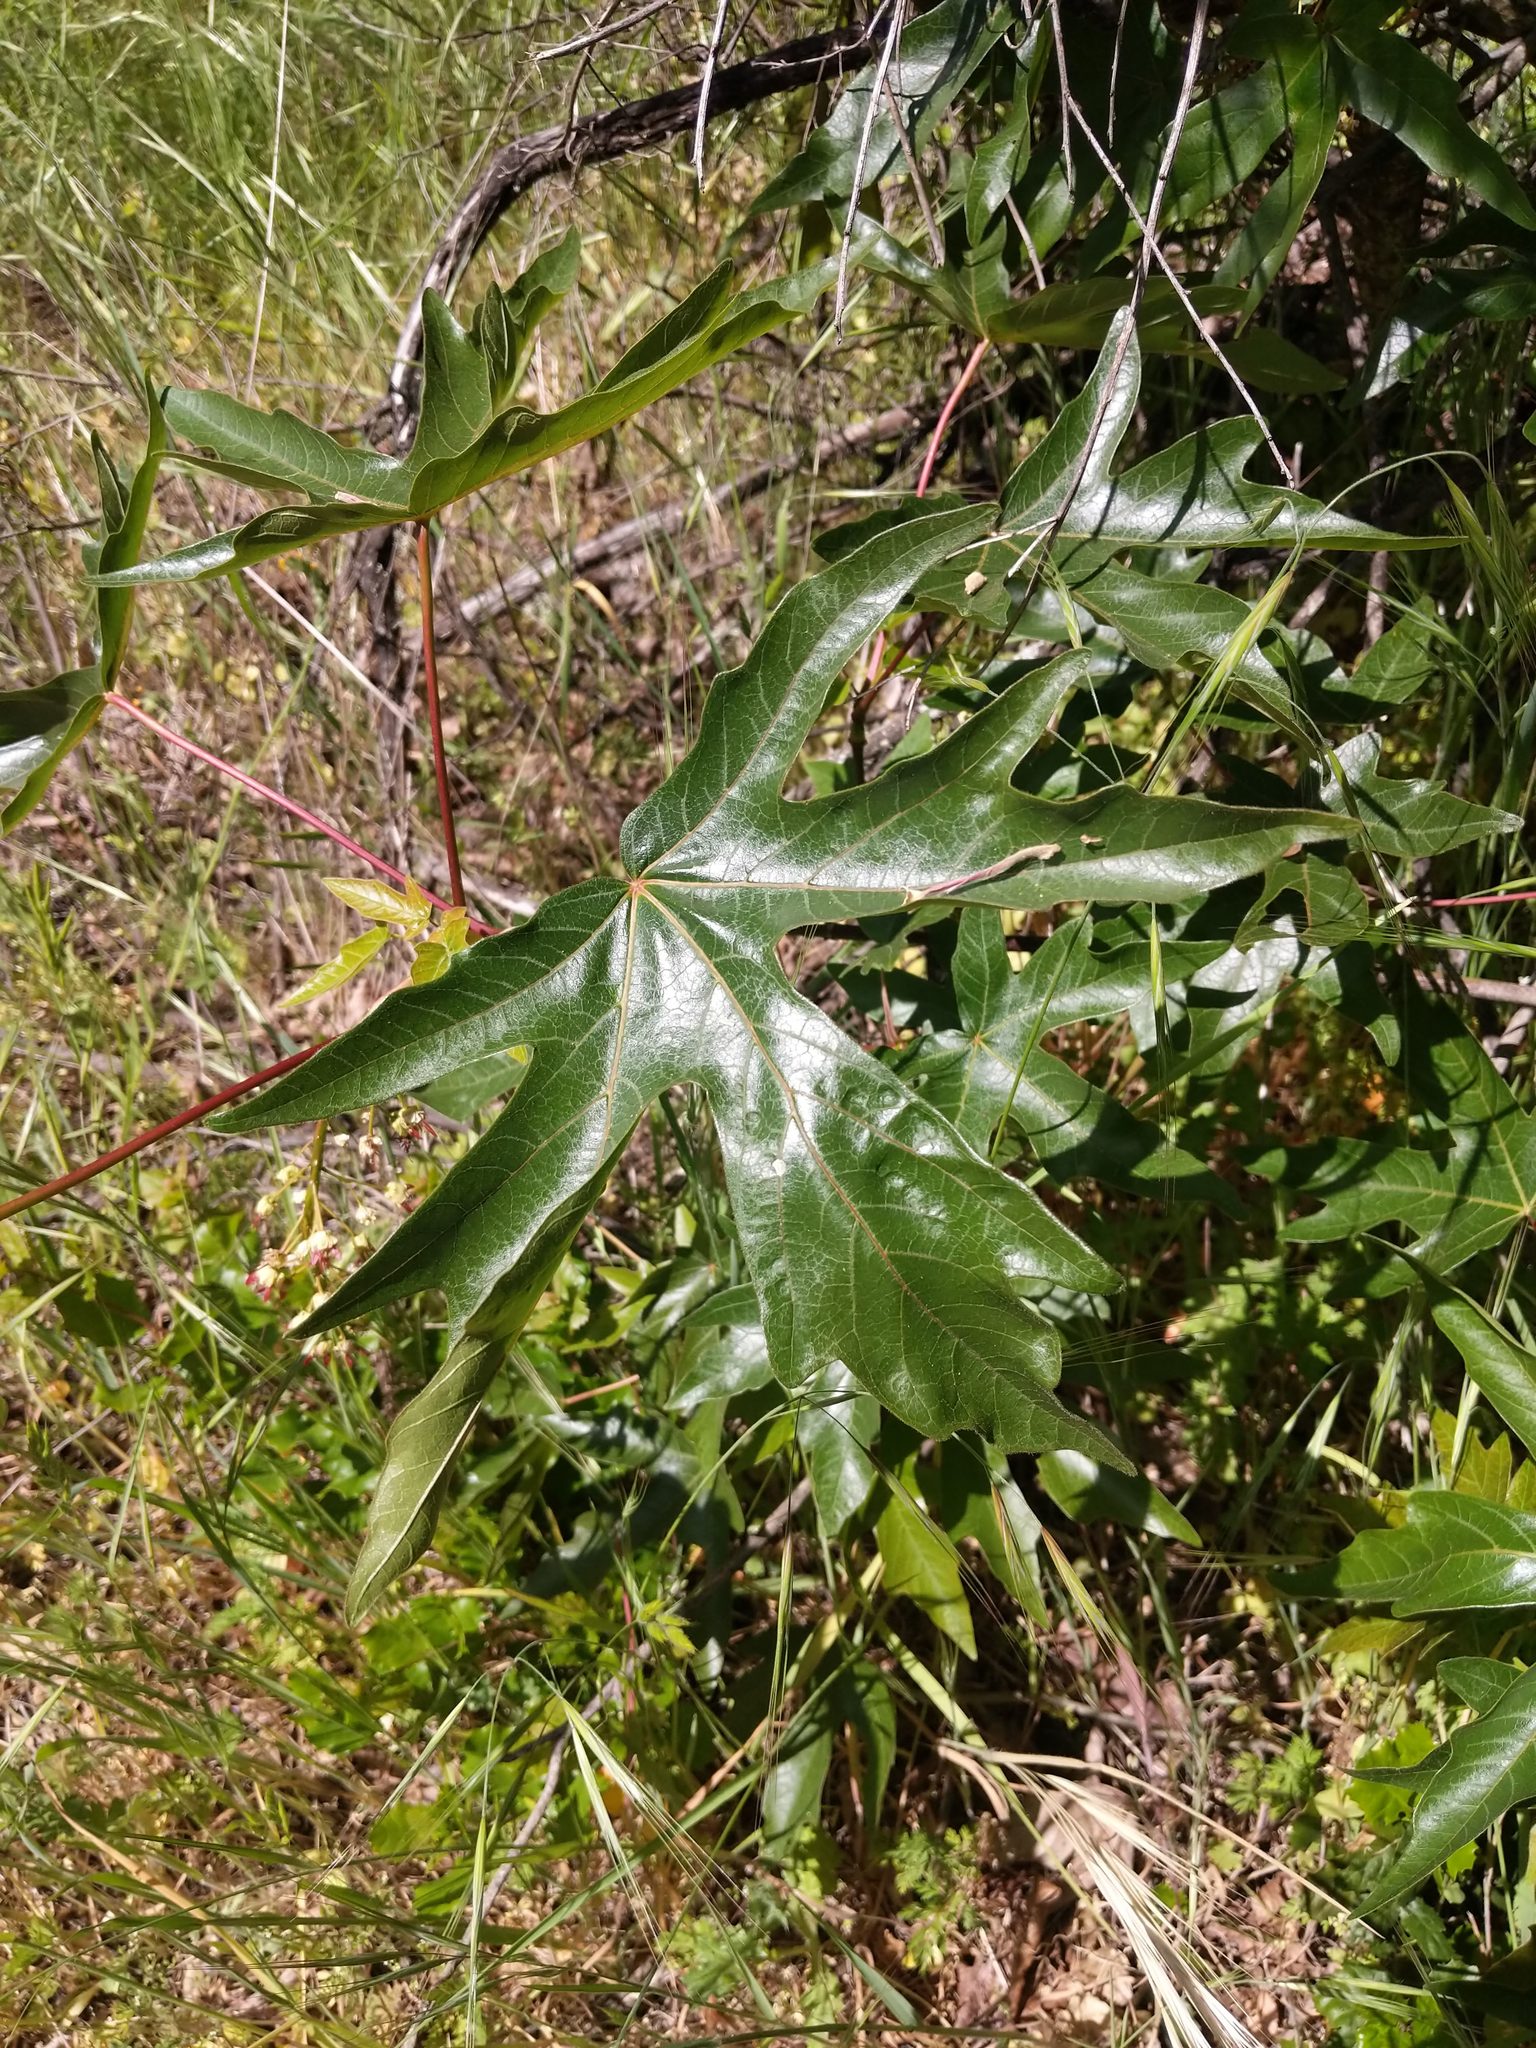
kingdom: Plantae
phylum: Tracheophyta
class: Magnoliopsida
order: Sapindales
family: Sapindaceae
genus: Acer
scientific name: Acer macrophyllum
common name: Oregon maple
